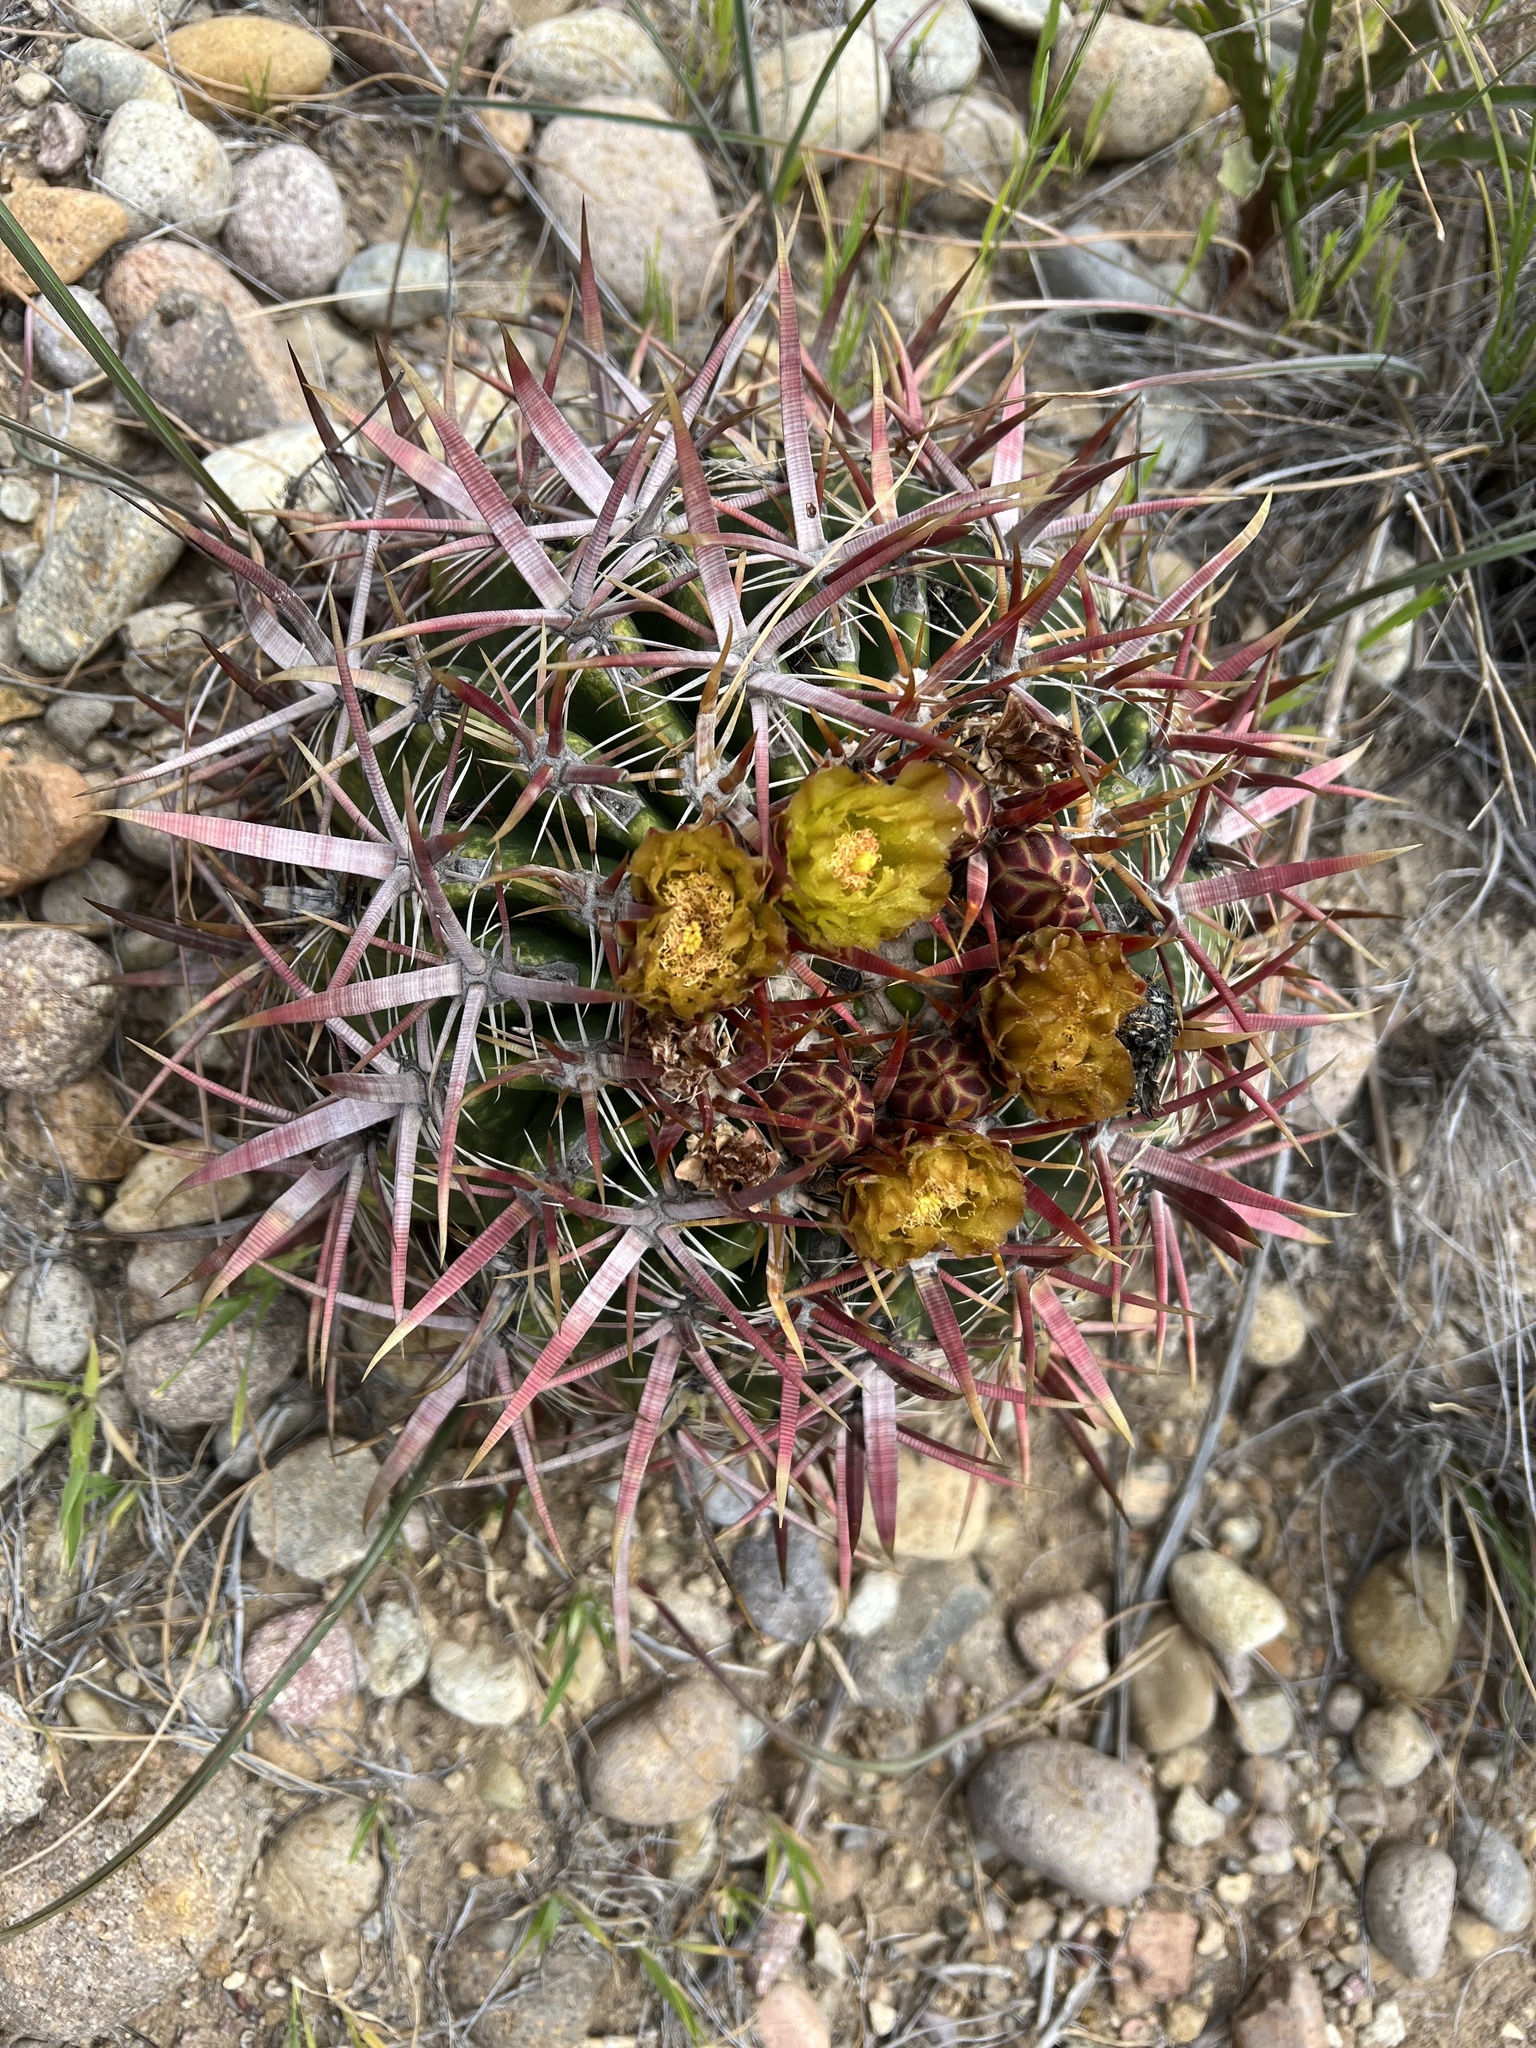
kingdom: Plantae
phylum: Tracheophyta
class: Magnoliopsida
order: Caryophyllales
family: Cactaceae
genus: Ferocactus
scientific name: Ferocactus viridescens
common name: San diego barrel cactus
